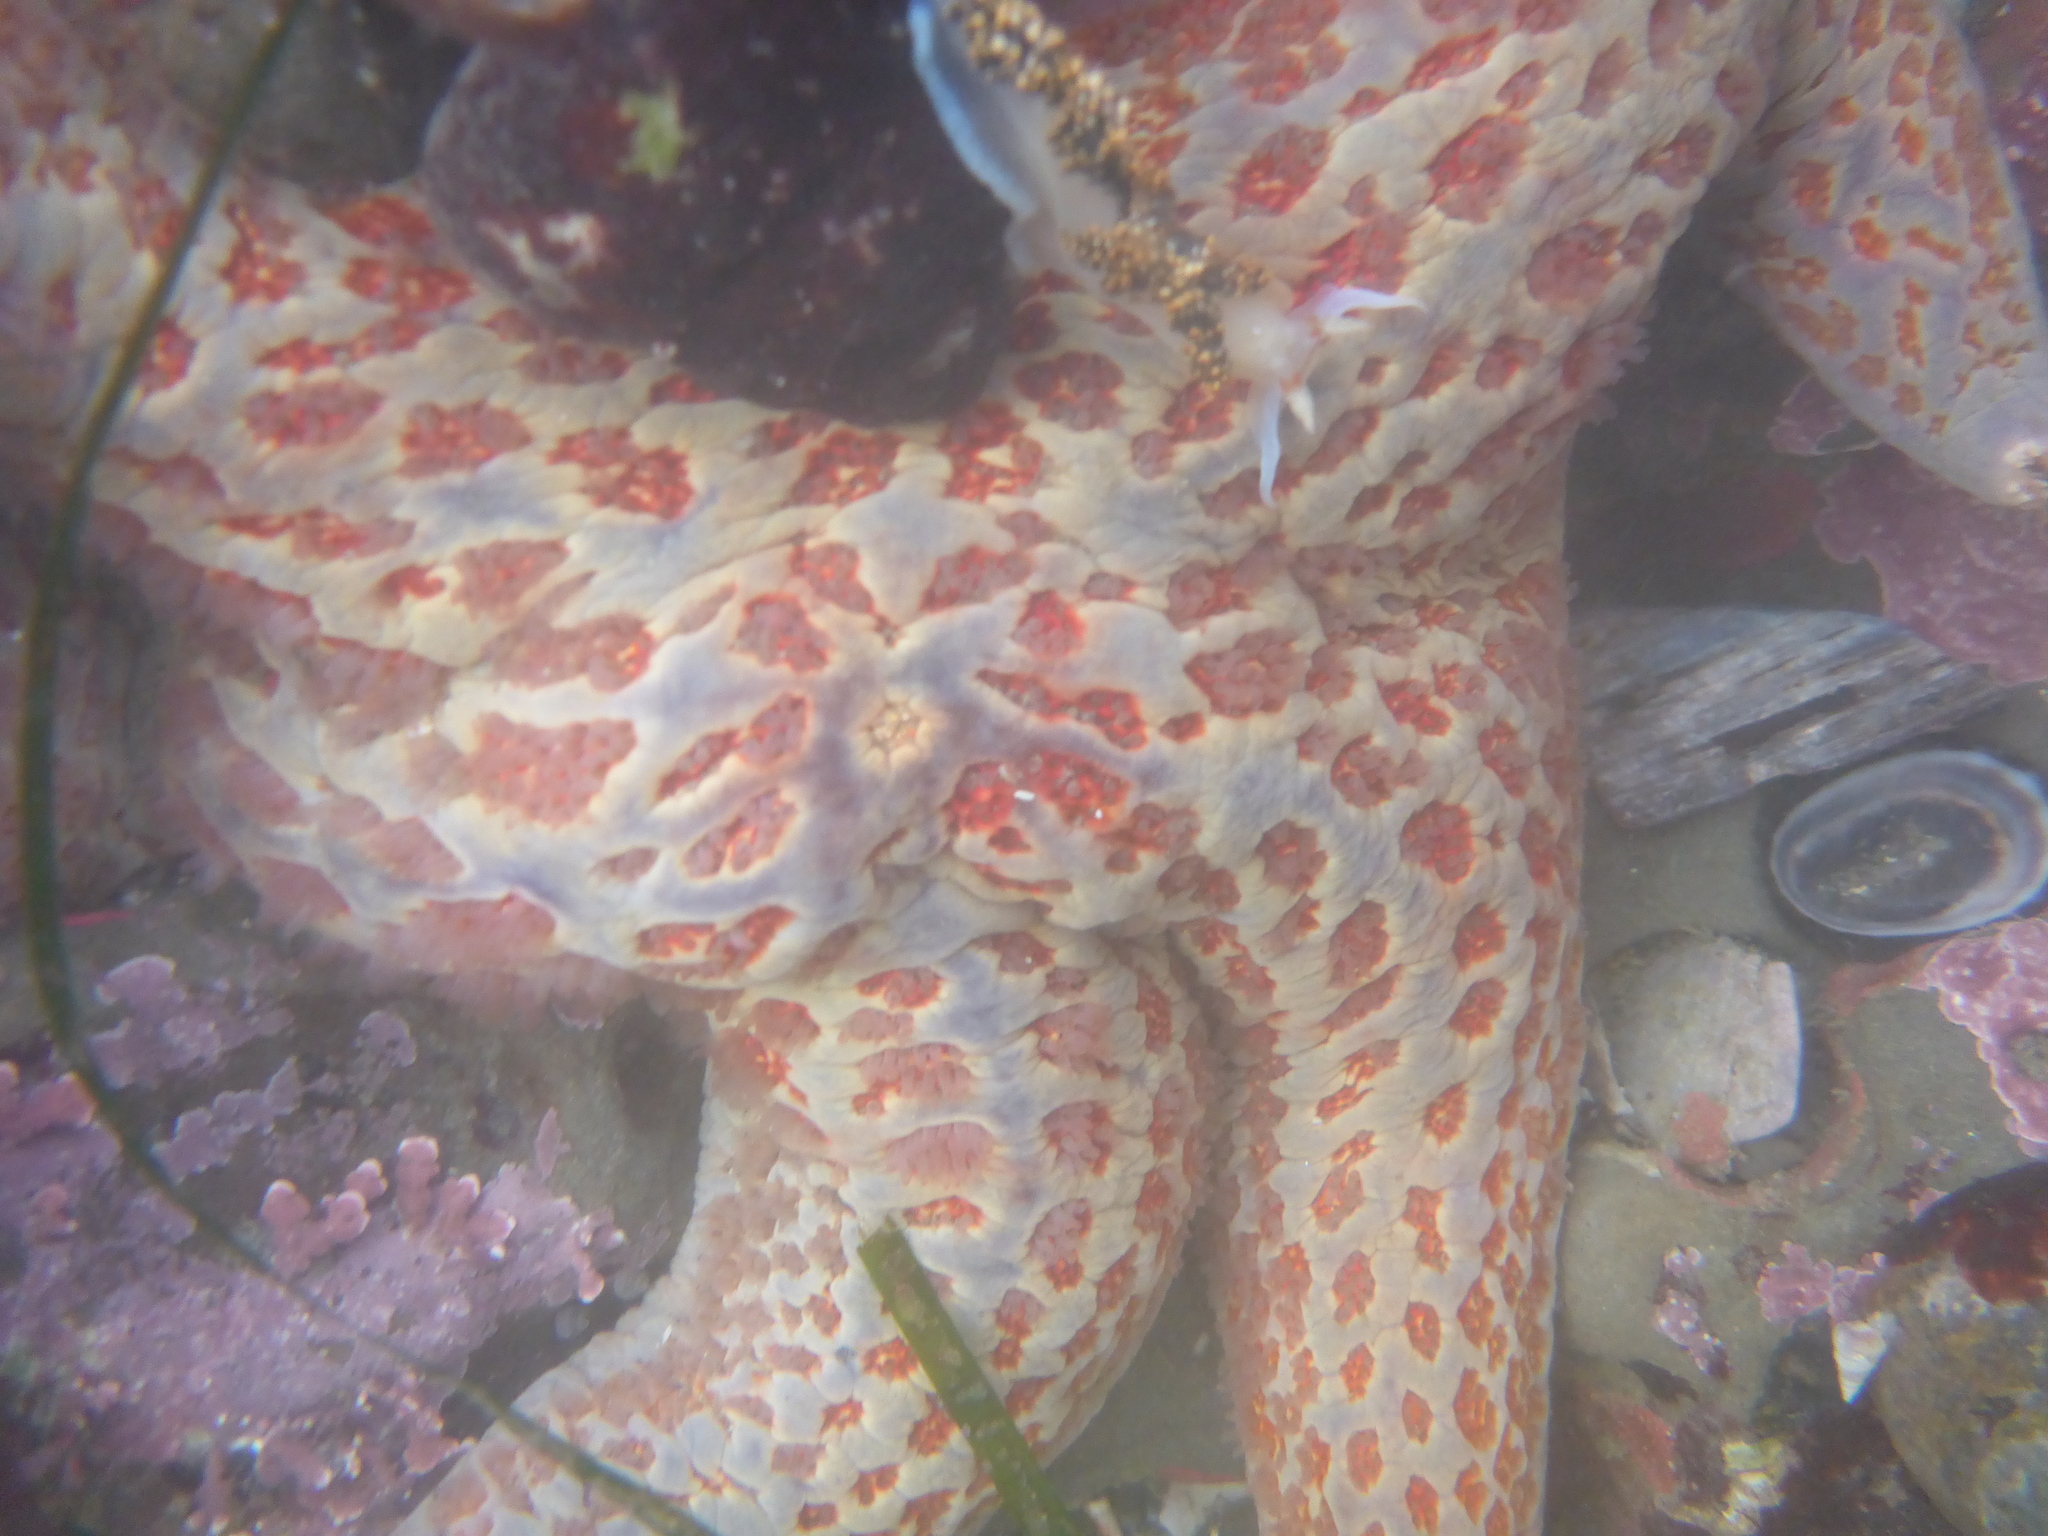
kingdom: Animalia
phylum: Echinodermata
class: Asteroidea
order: Valvatida
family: Asteropseidae
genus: Dermasterias
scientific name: Dermasterias imbricata
